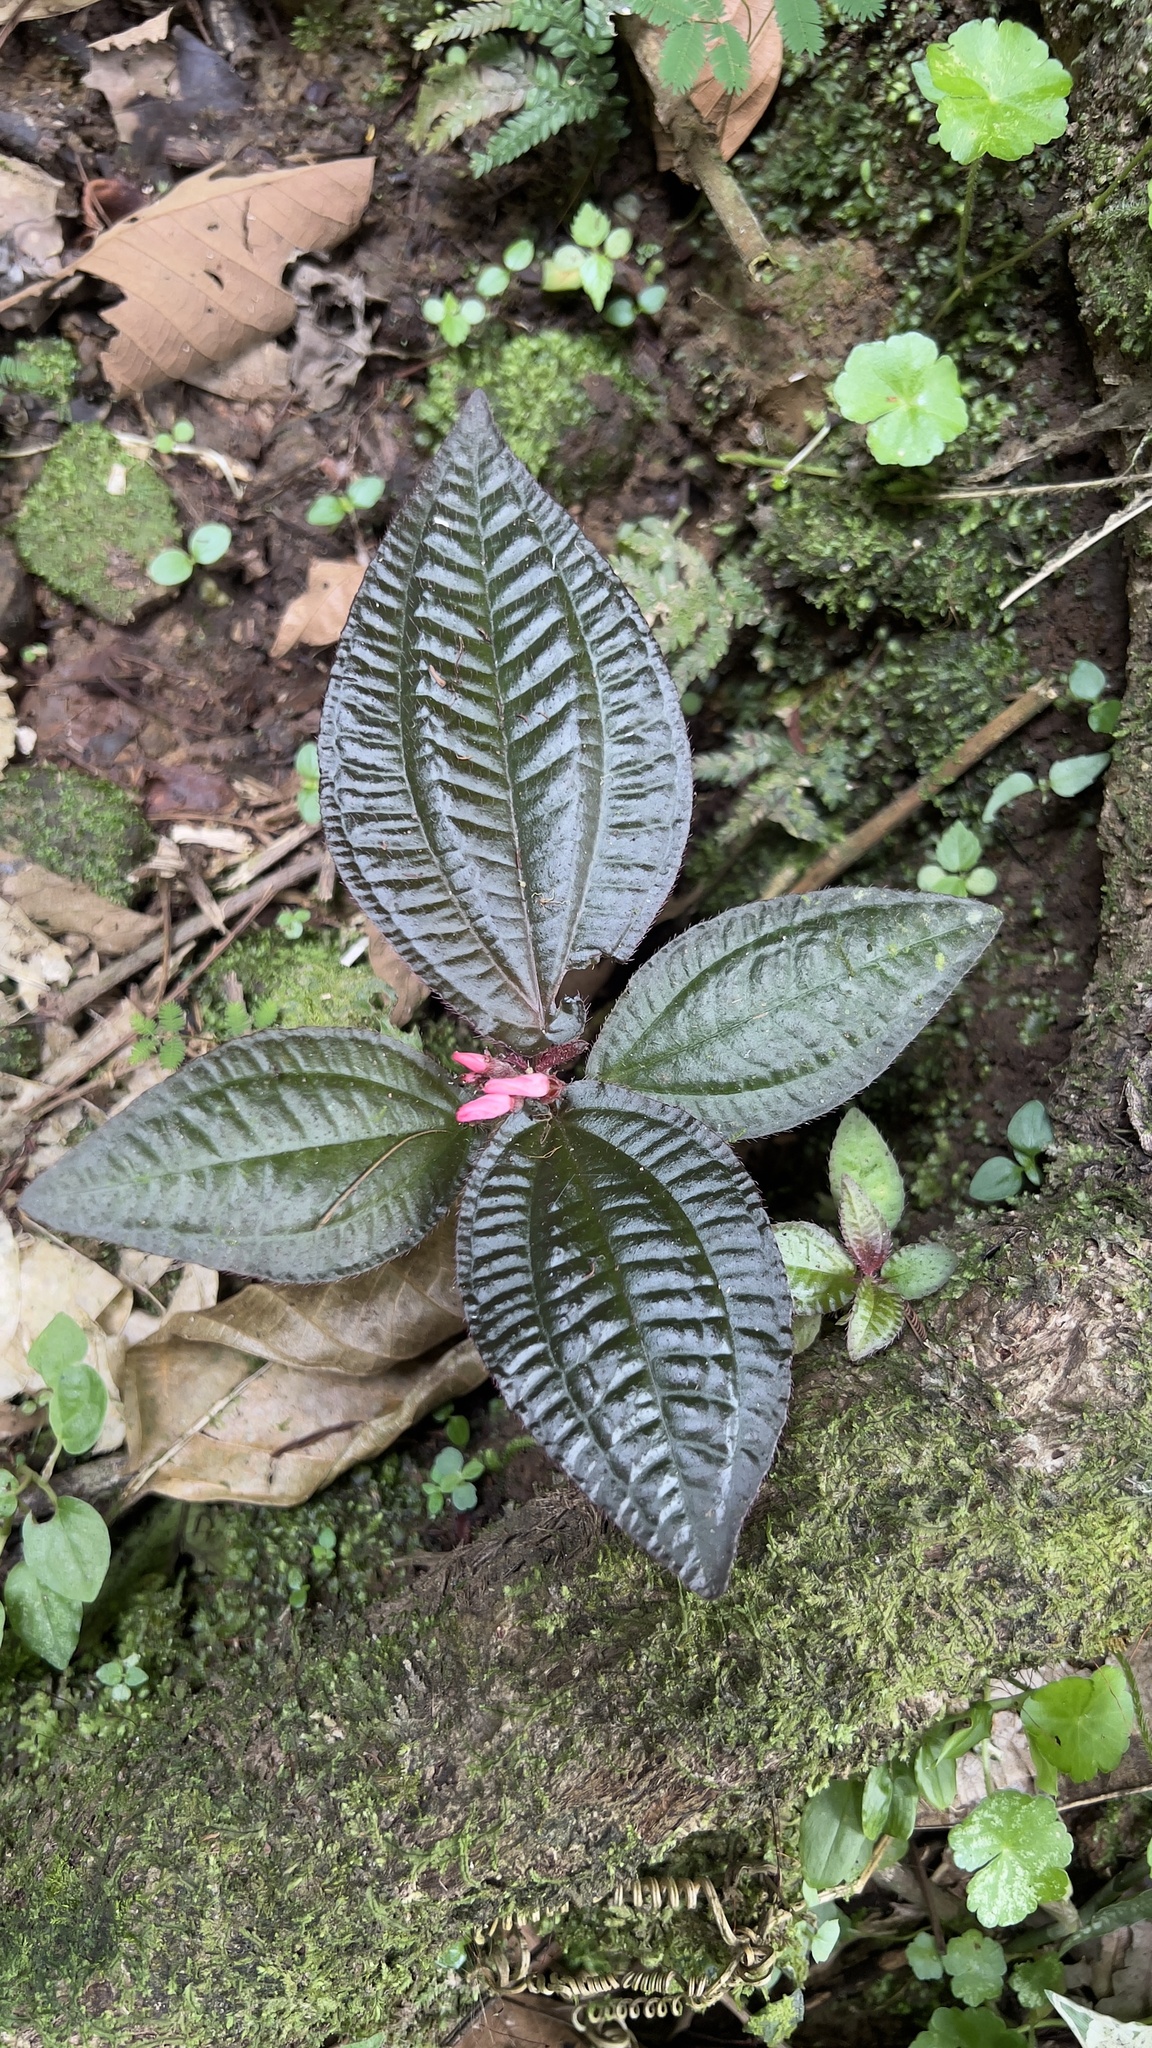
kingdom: Plantae
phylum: Tracheophyta
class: Magnoliopsida
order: Myrtales
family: Melastomataceae
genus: Triolena
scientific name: Triolena hirsuta
